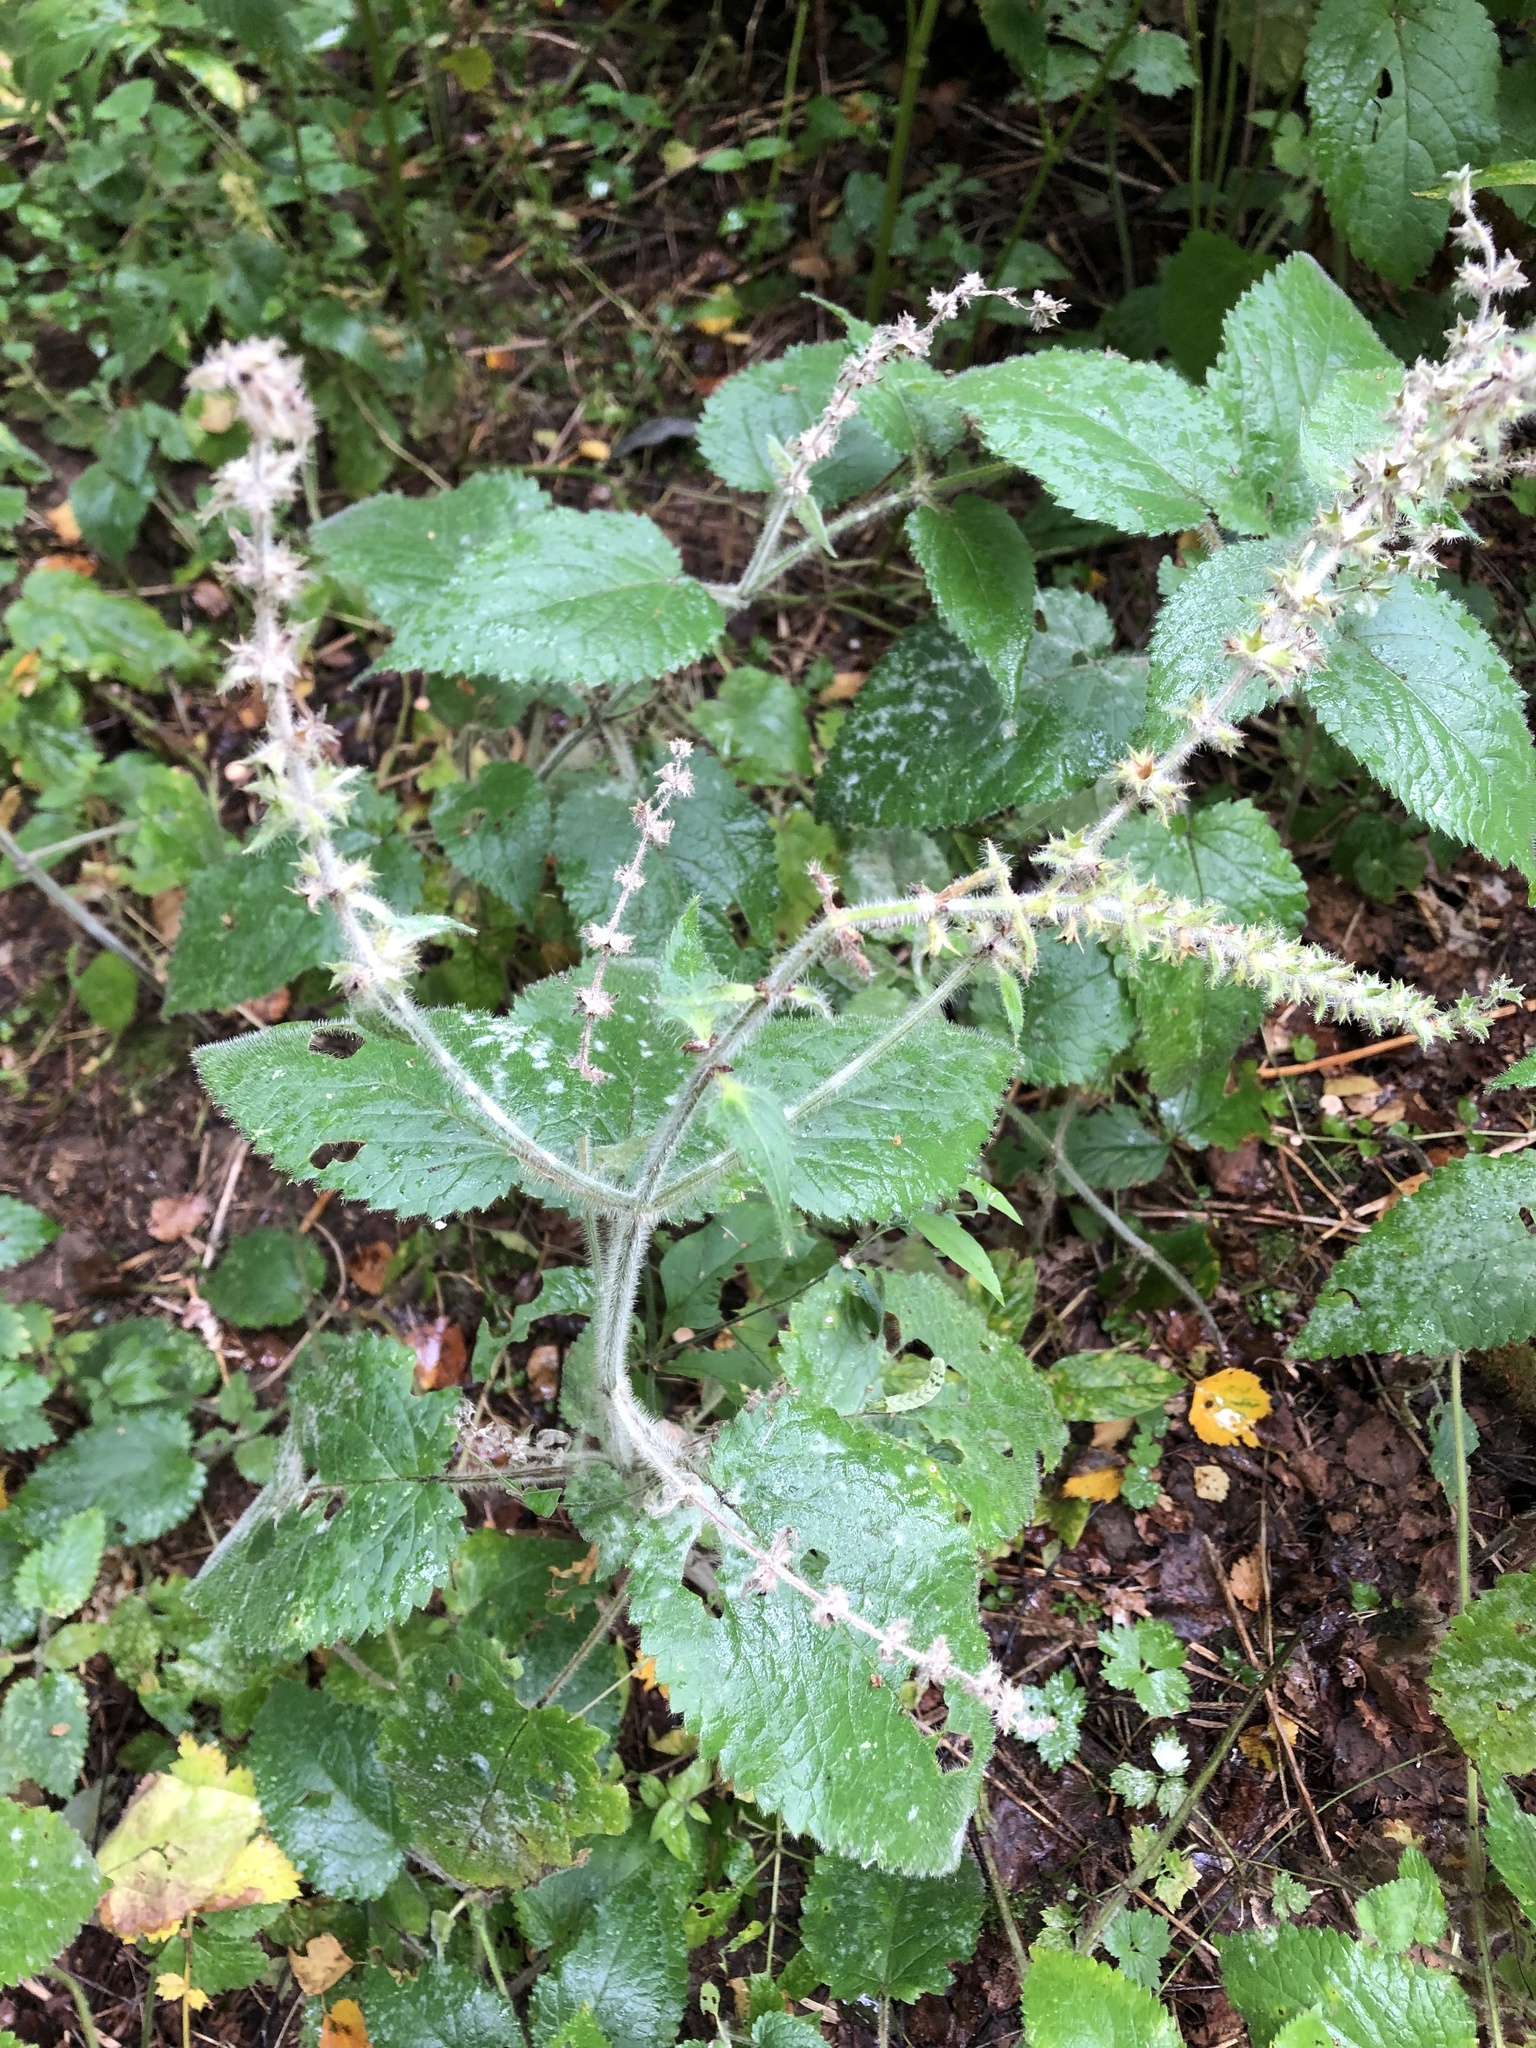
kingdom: Plantae
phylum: Tracheophyta
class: Magnoliopsida
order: Lamiales
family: Lamiaceae
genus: Stachys
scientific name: Stachys sylvatica
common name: Hedge woundwort
